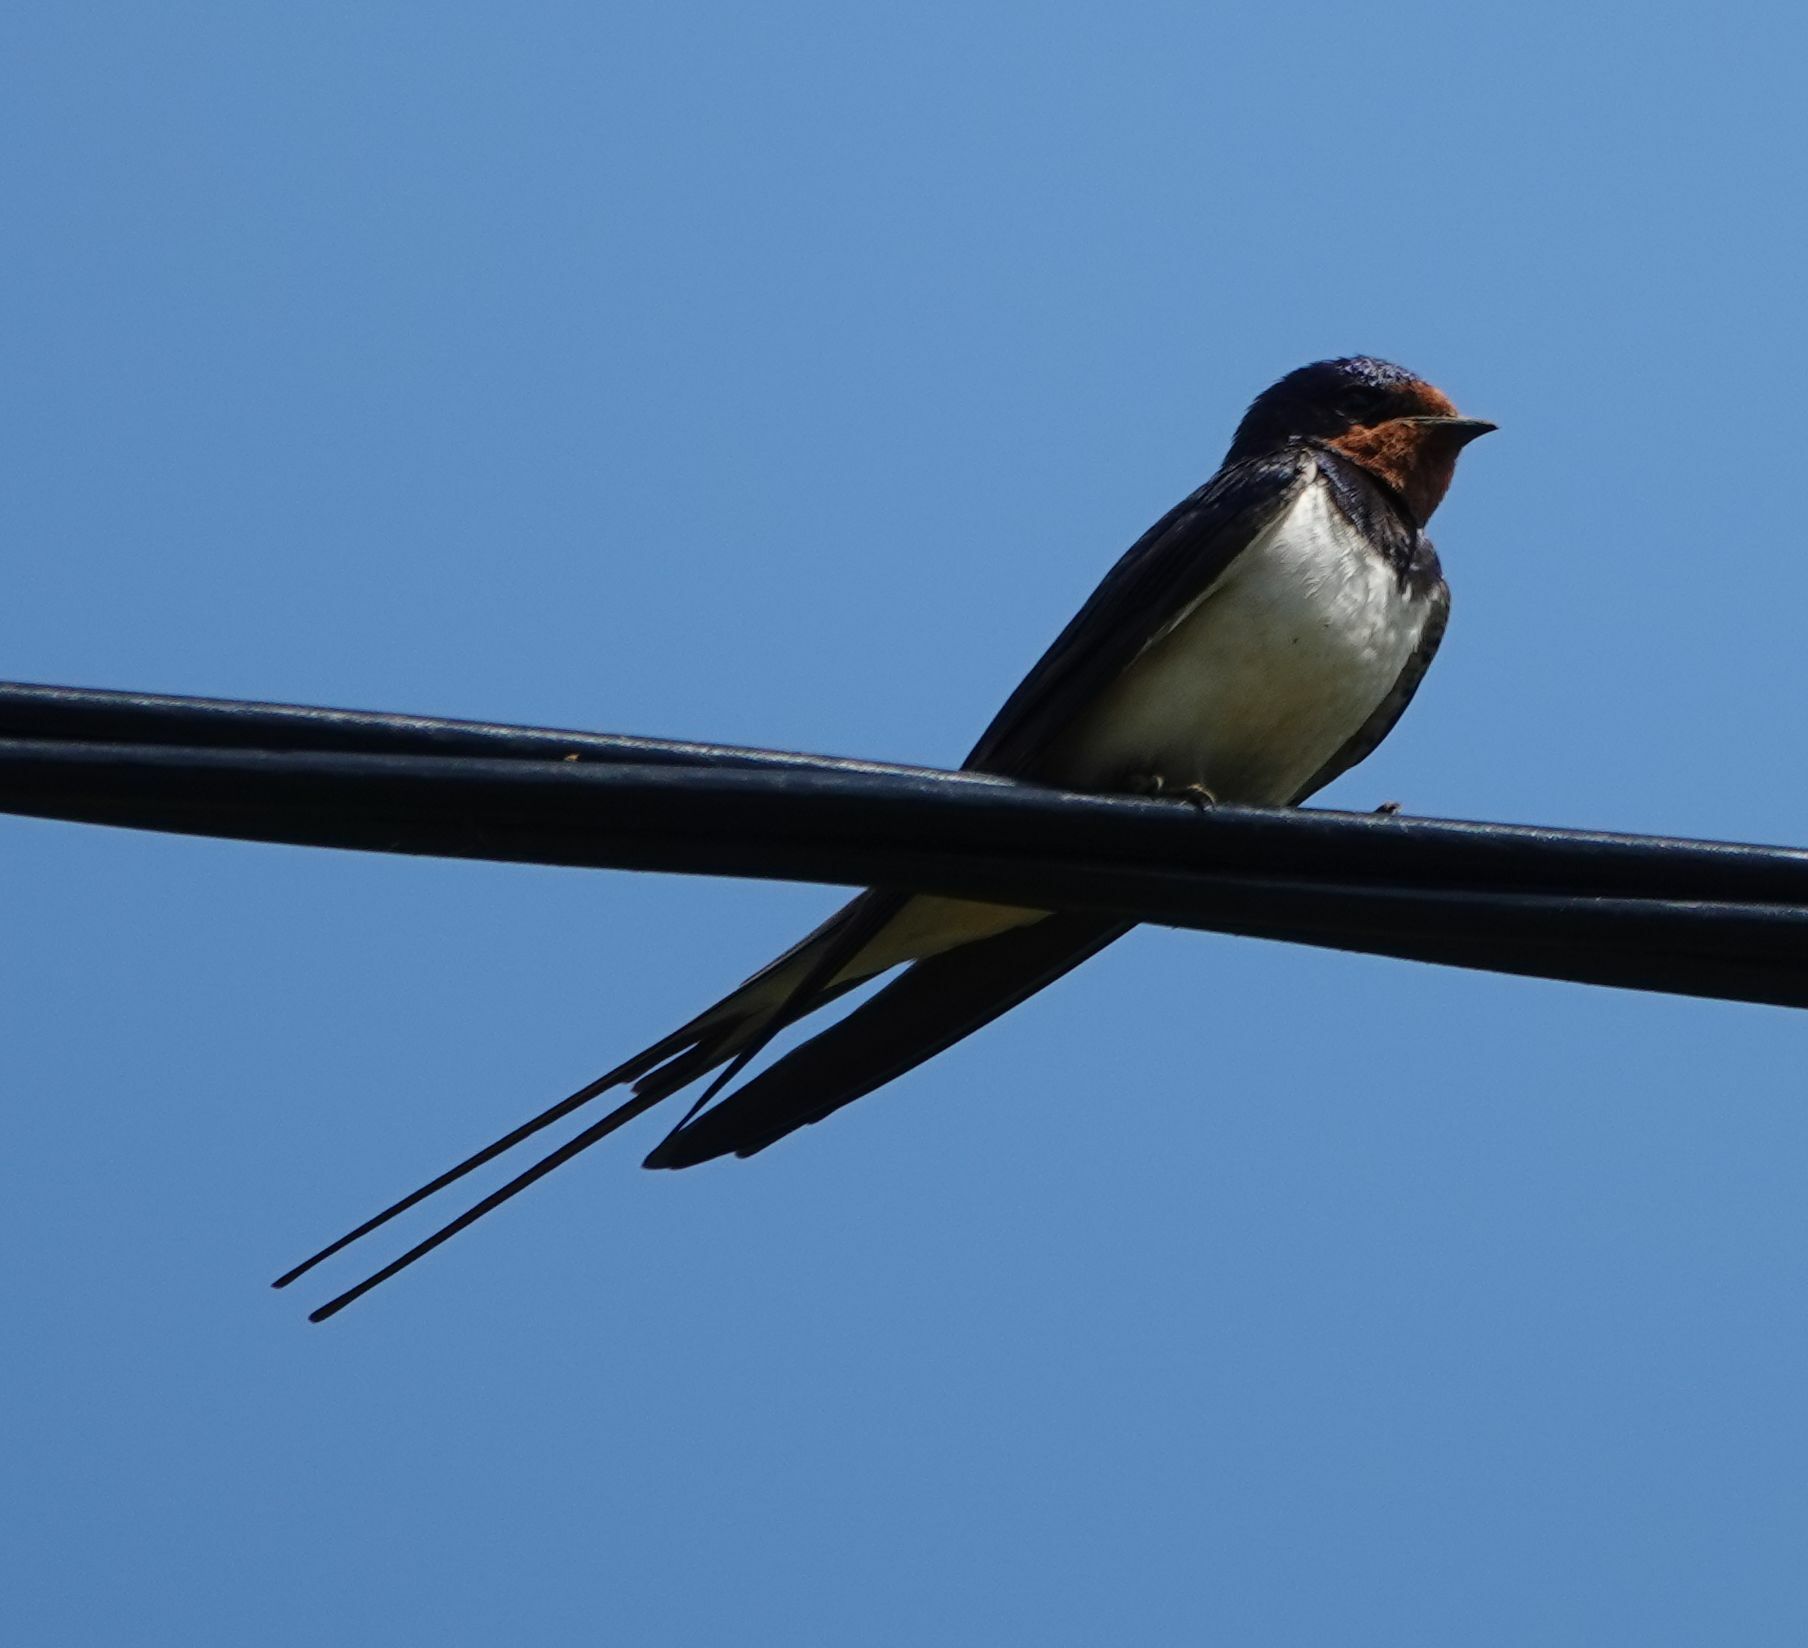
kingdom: Animalia
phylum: Chordata
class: Aves
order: Passeriformes
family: Hirundinidae
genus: Hirundo
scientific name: Hirundo rustica
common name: Barn swallow
